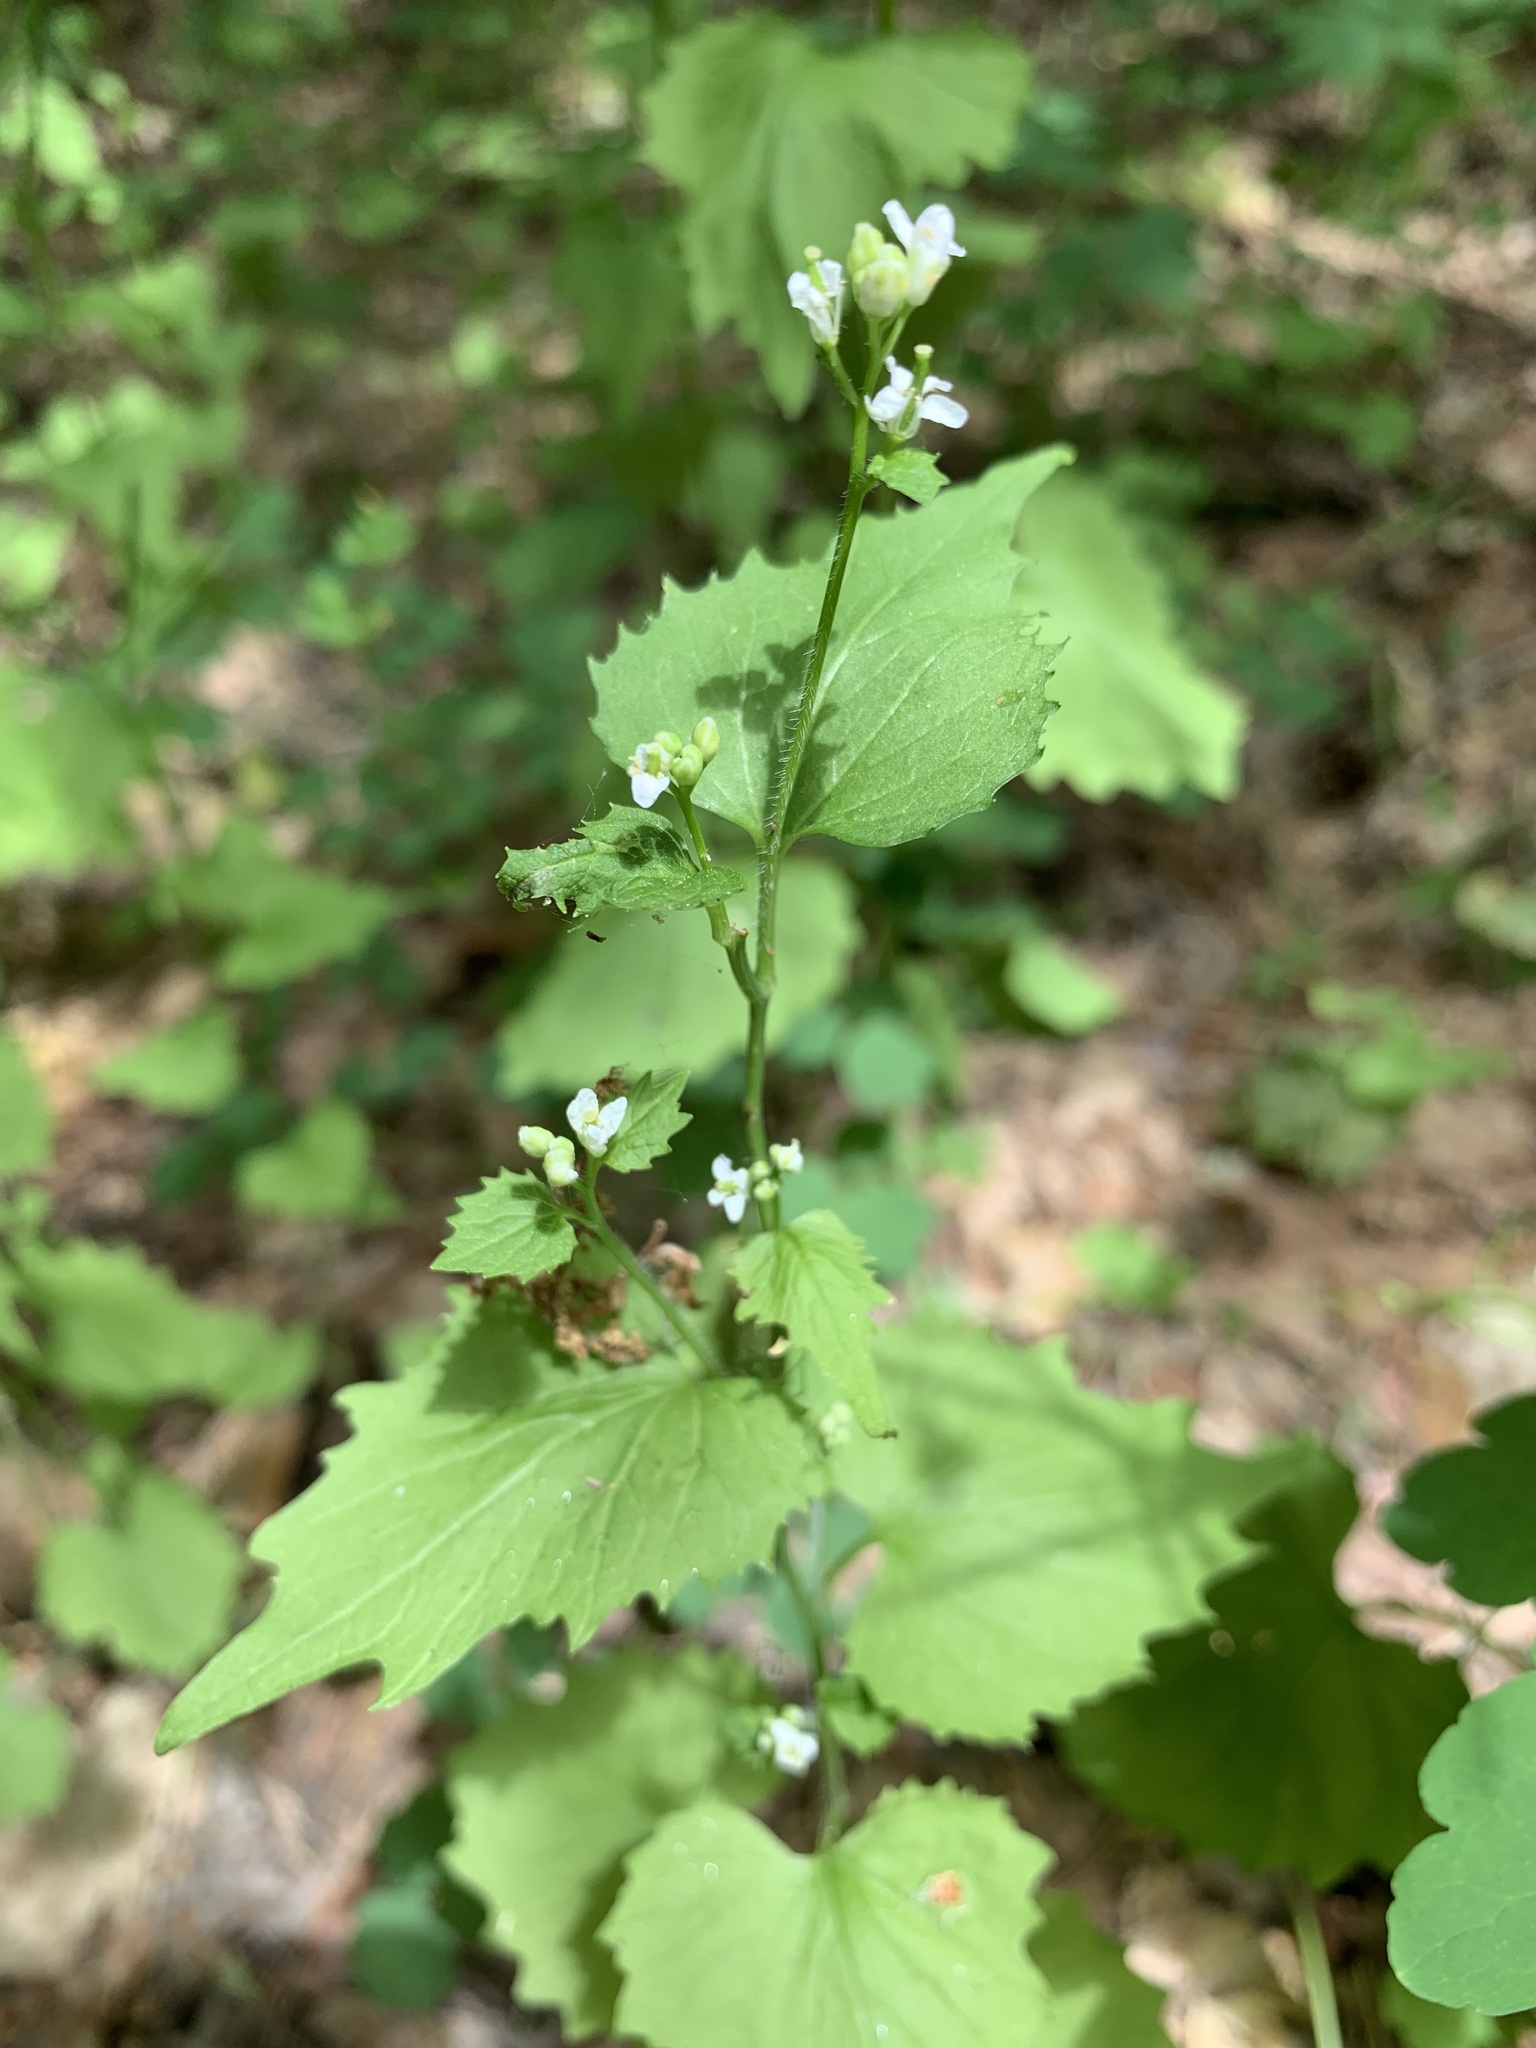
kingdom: Plantae
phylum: Tracheophyta
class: Magnoliopsida
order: Brassicales
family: Brassicaceae
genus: Alliaria
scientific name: Alliaria petiolata
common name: Garlic mustard
